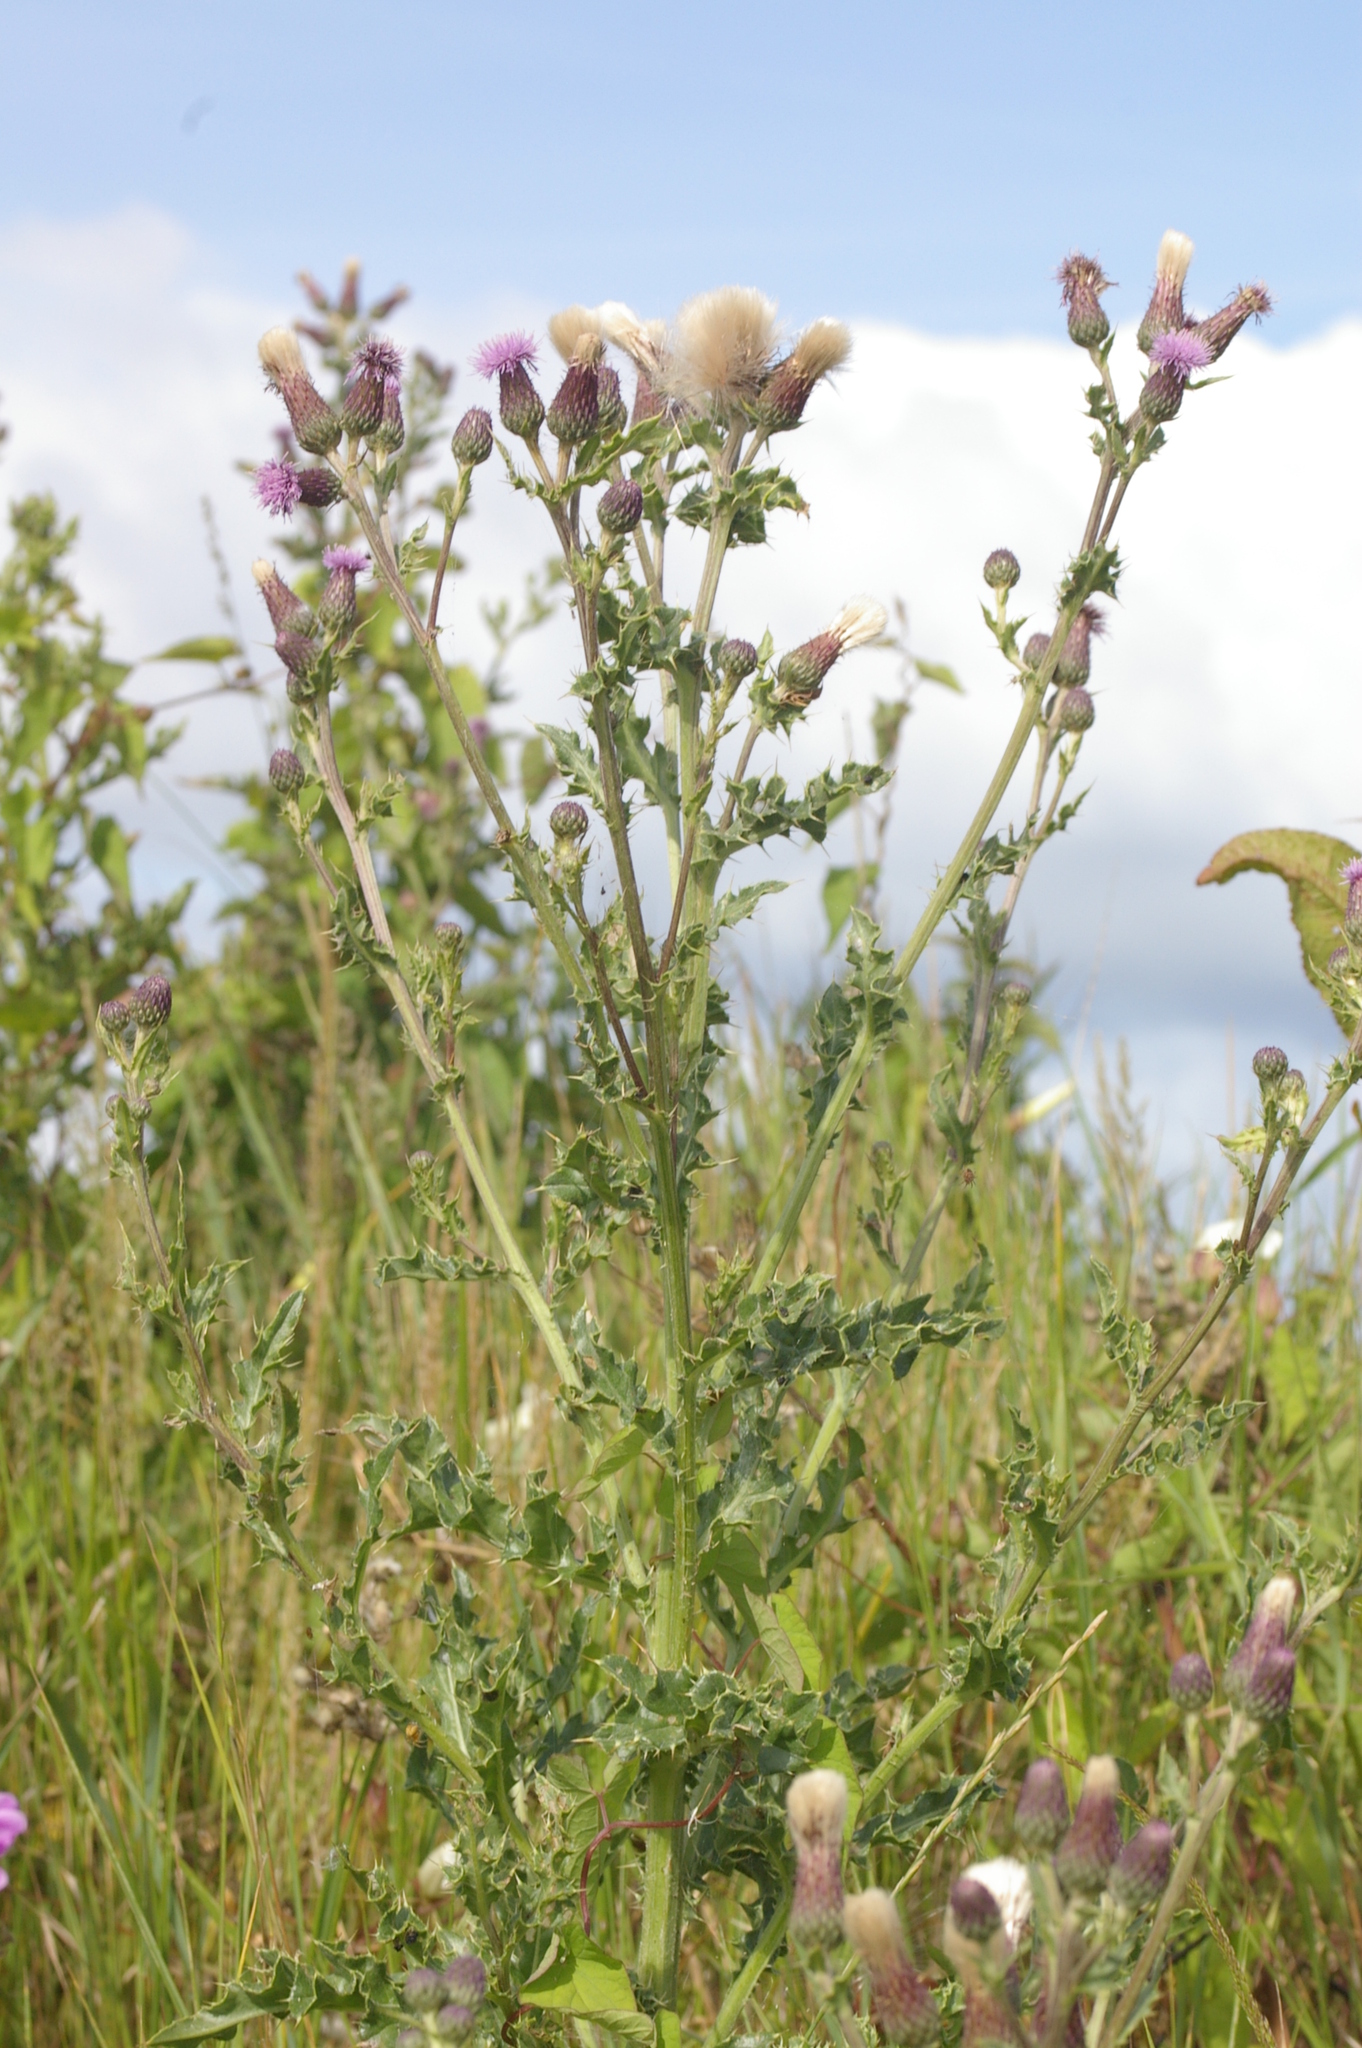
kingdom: Plantae
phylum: Tracheophyta
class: Magnoliopsida
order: Asterales
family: Asteraceae
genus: Cirsium
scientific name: Cirsium arvense
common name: Creeping thistle
